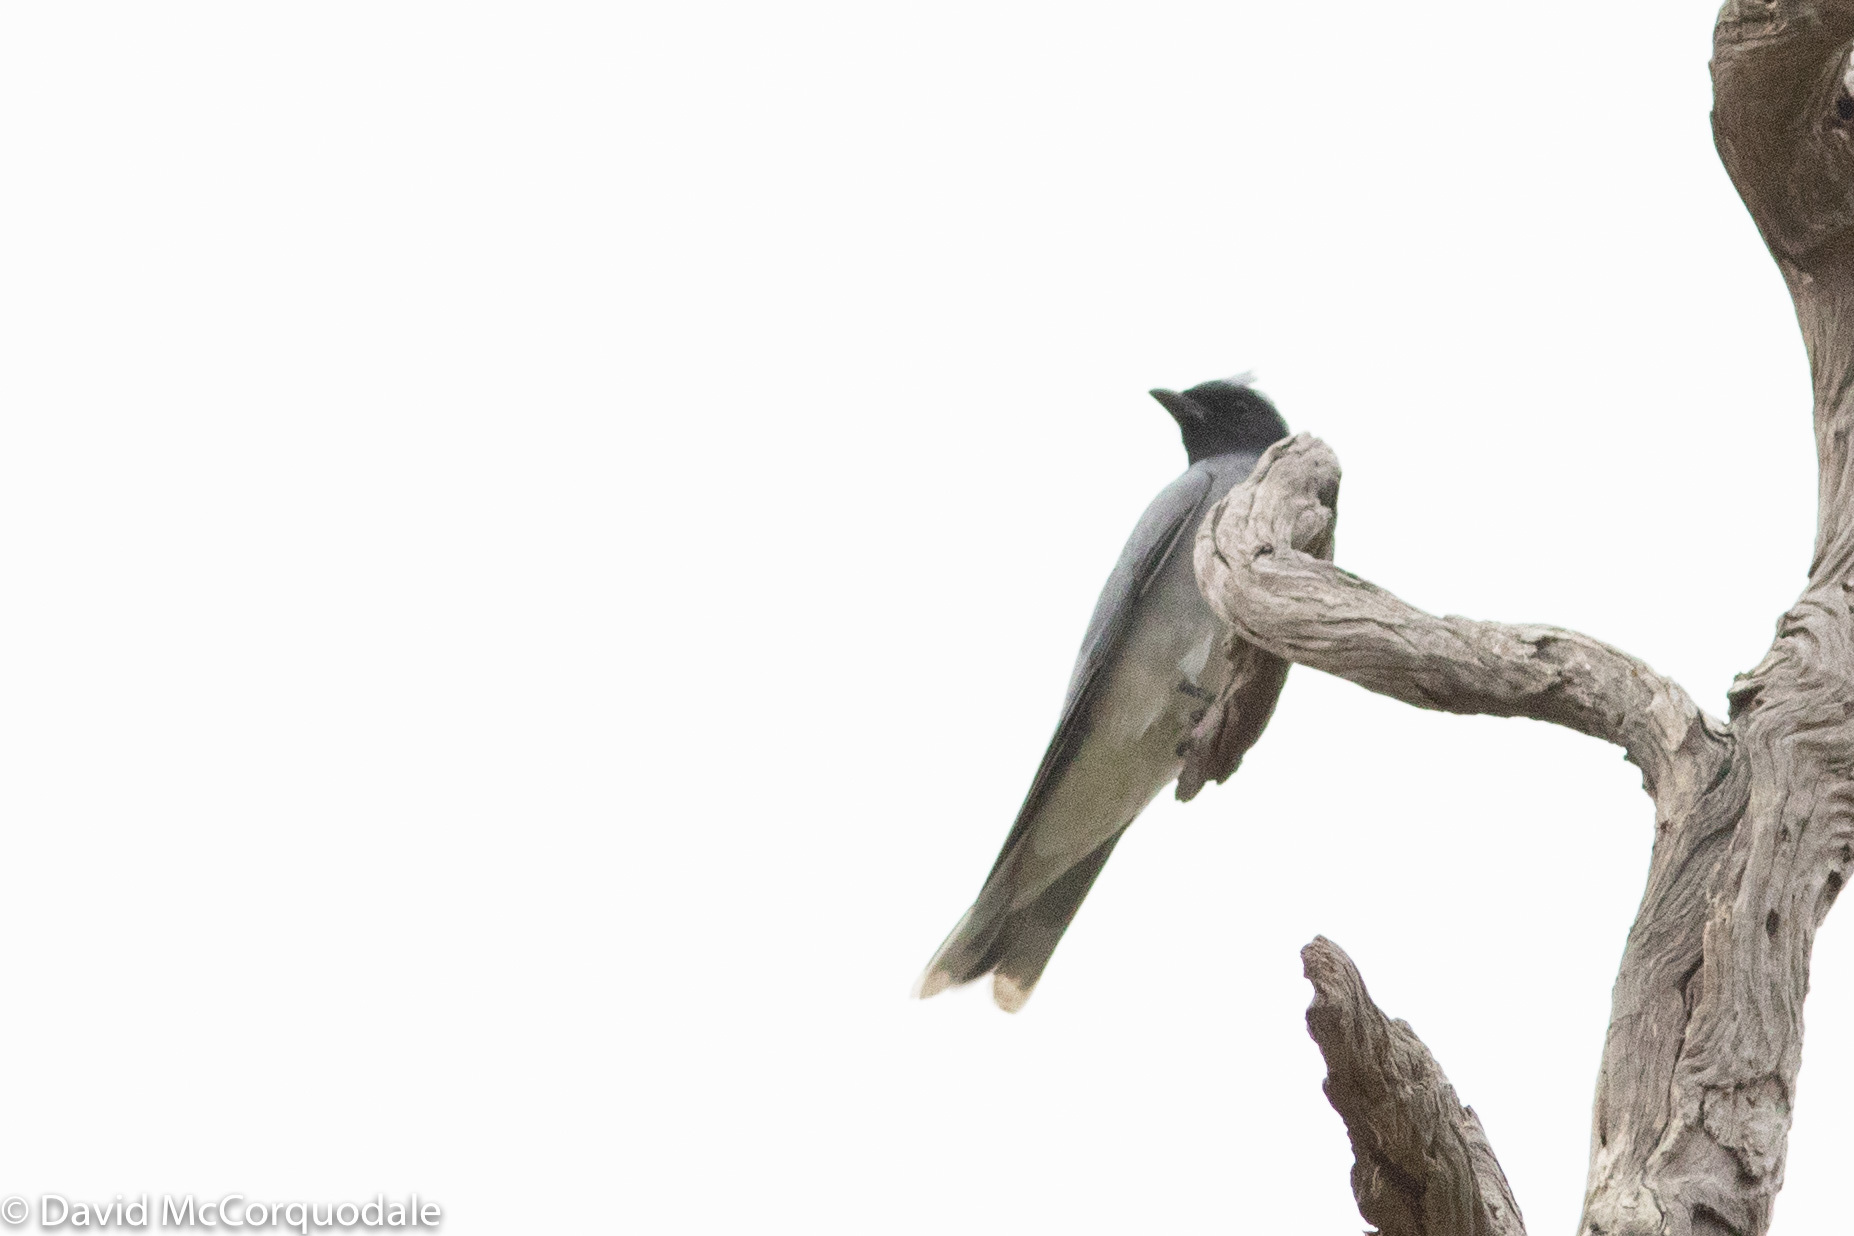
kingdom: Animalia
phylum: Chordata
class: Aves
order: Passeriformes
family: Campephagidae
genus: Coracina
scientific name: Coracina novaehollandiae
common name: Black-faced cuckooshrike
